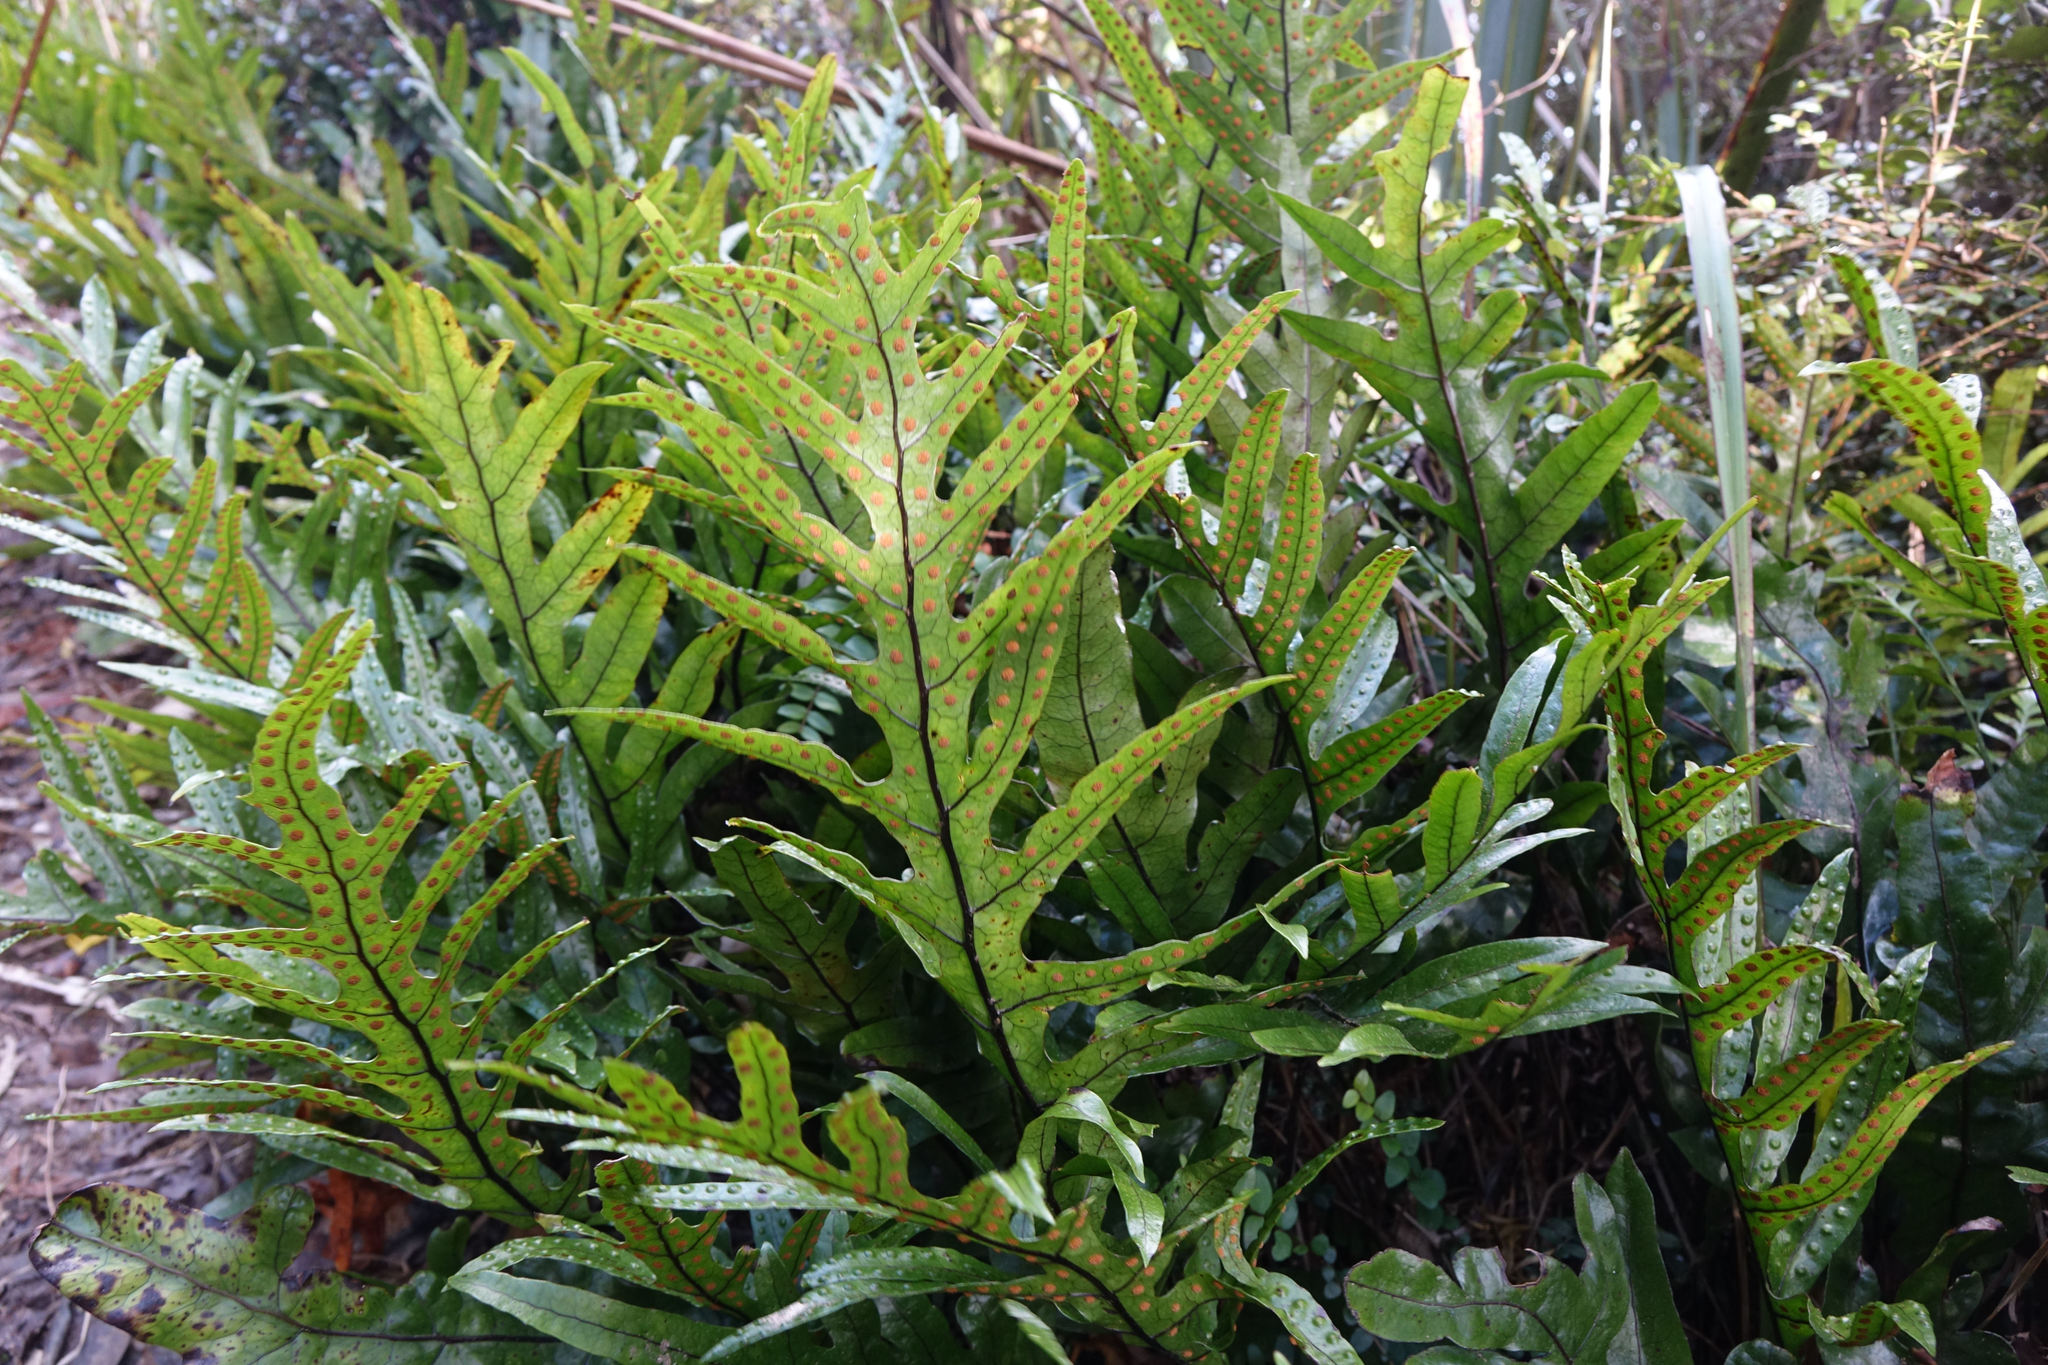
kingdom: Plantae
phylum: Tracheophyta
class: Polypodiopsida
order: Polypodiales
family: Polypodiaceae
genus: Lecanopteris
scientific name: Lecanopteris pustulata
